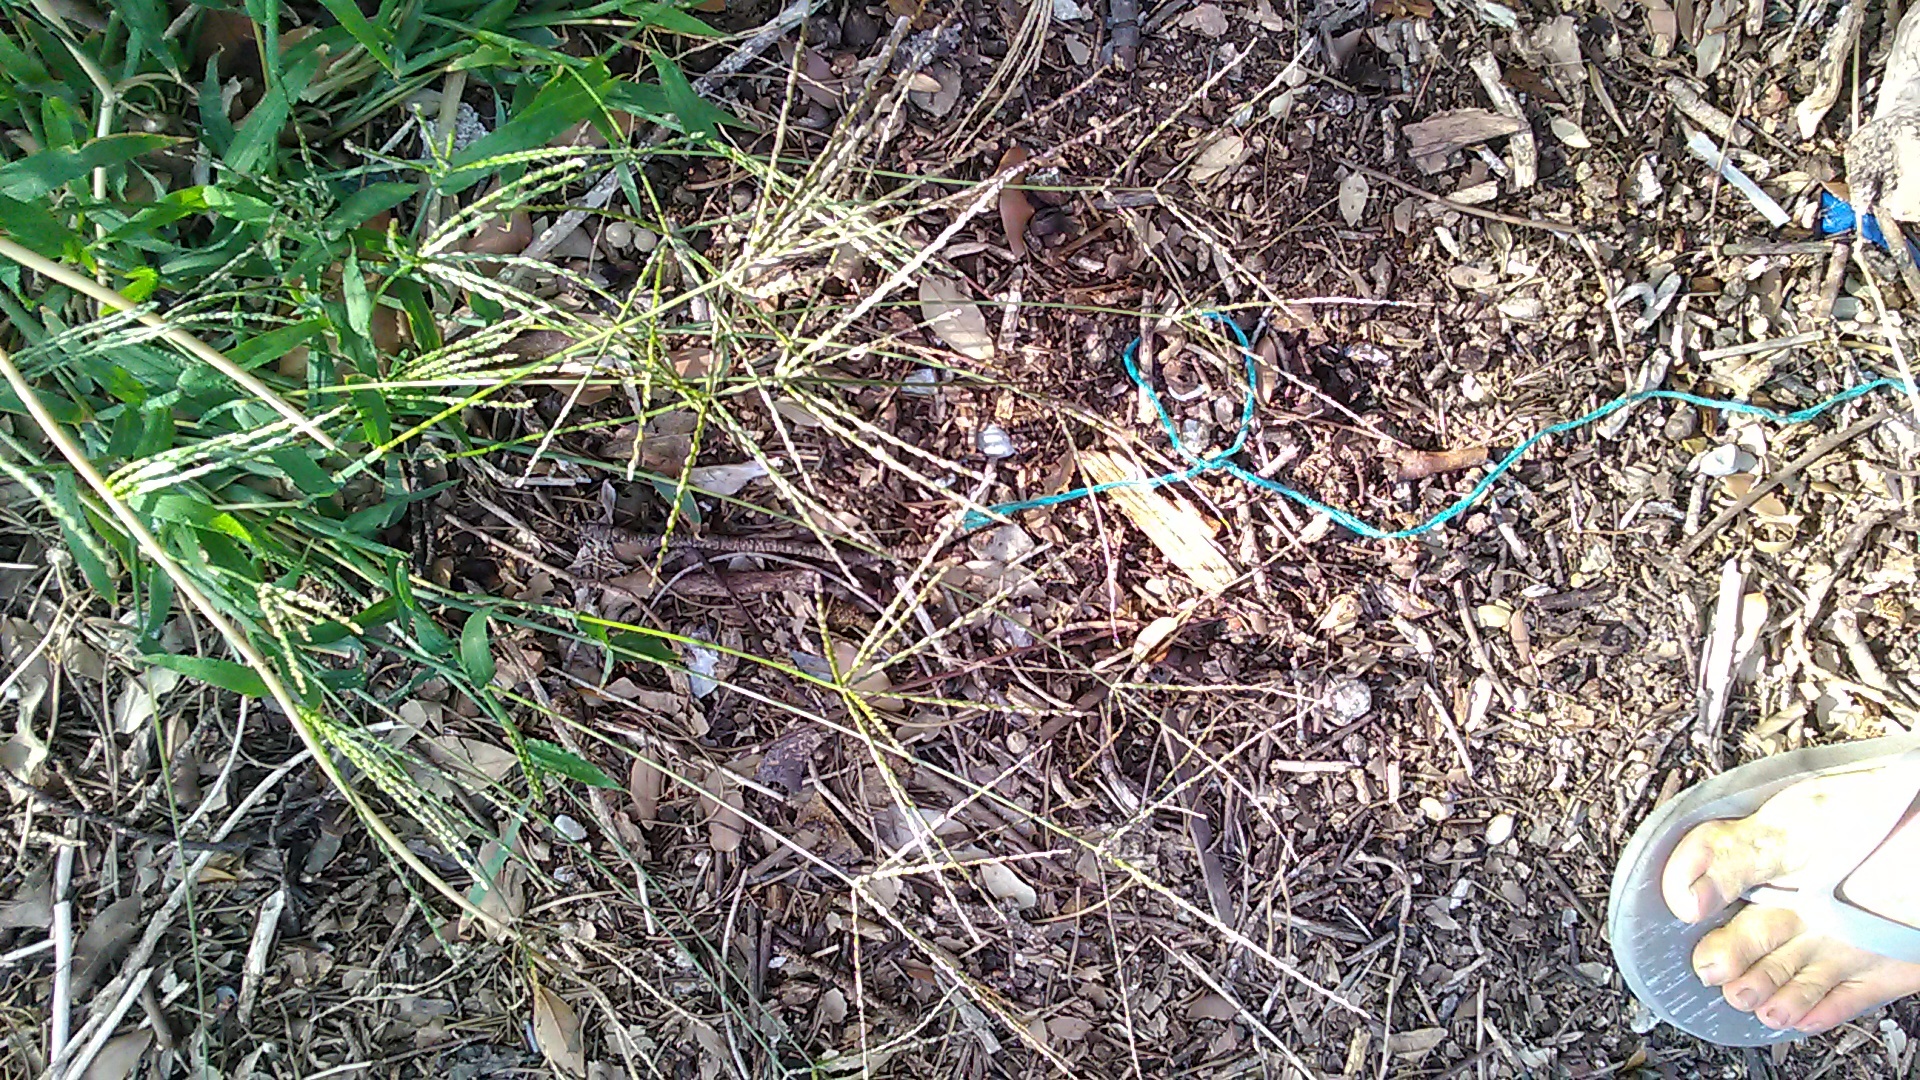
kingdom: Plantae
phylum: Tracheophyta
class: Liliopsida
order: Poales
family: Poaceae
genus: Digitaria
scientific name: Digitaria sanguinalis
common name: Hairy crabgrass
